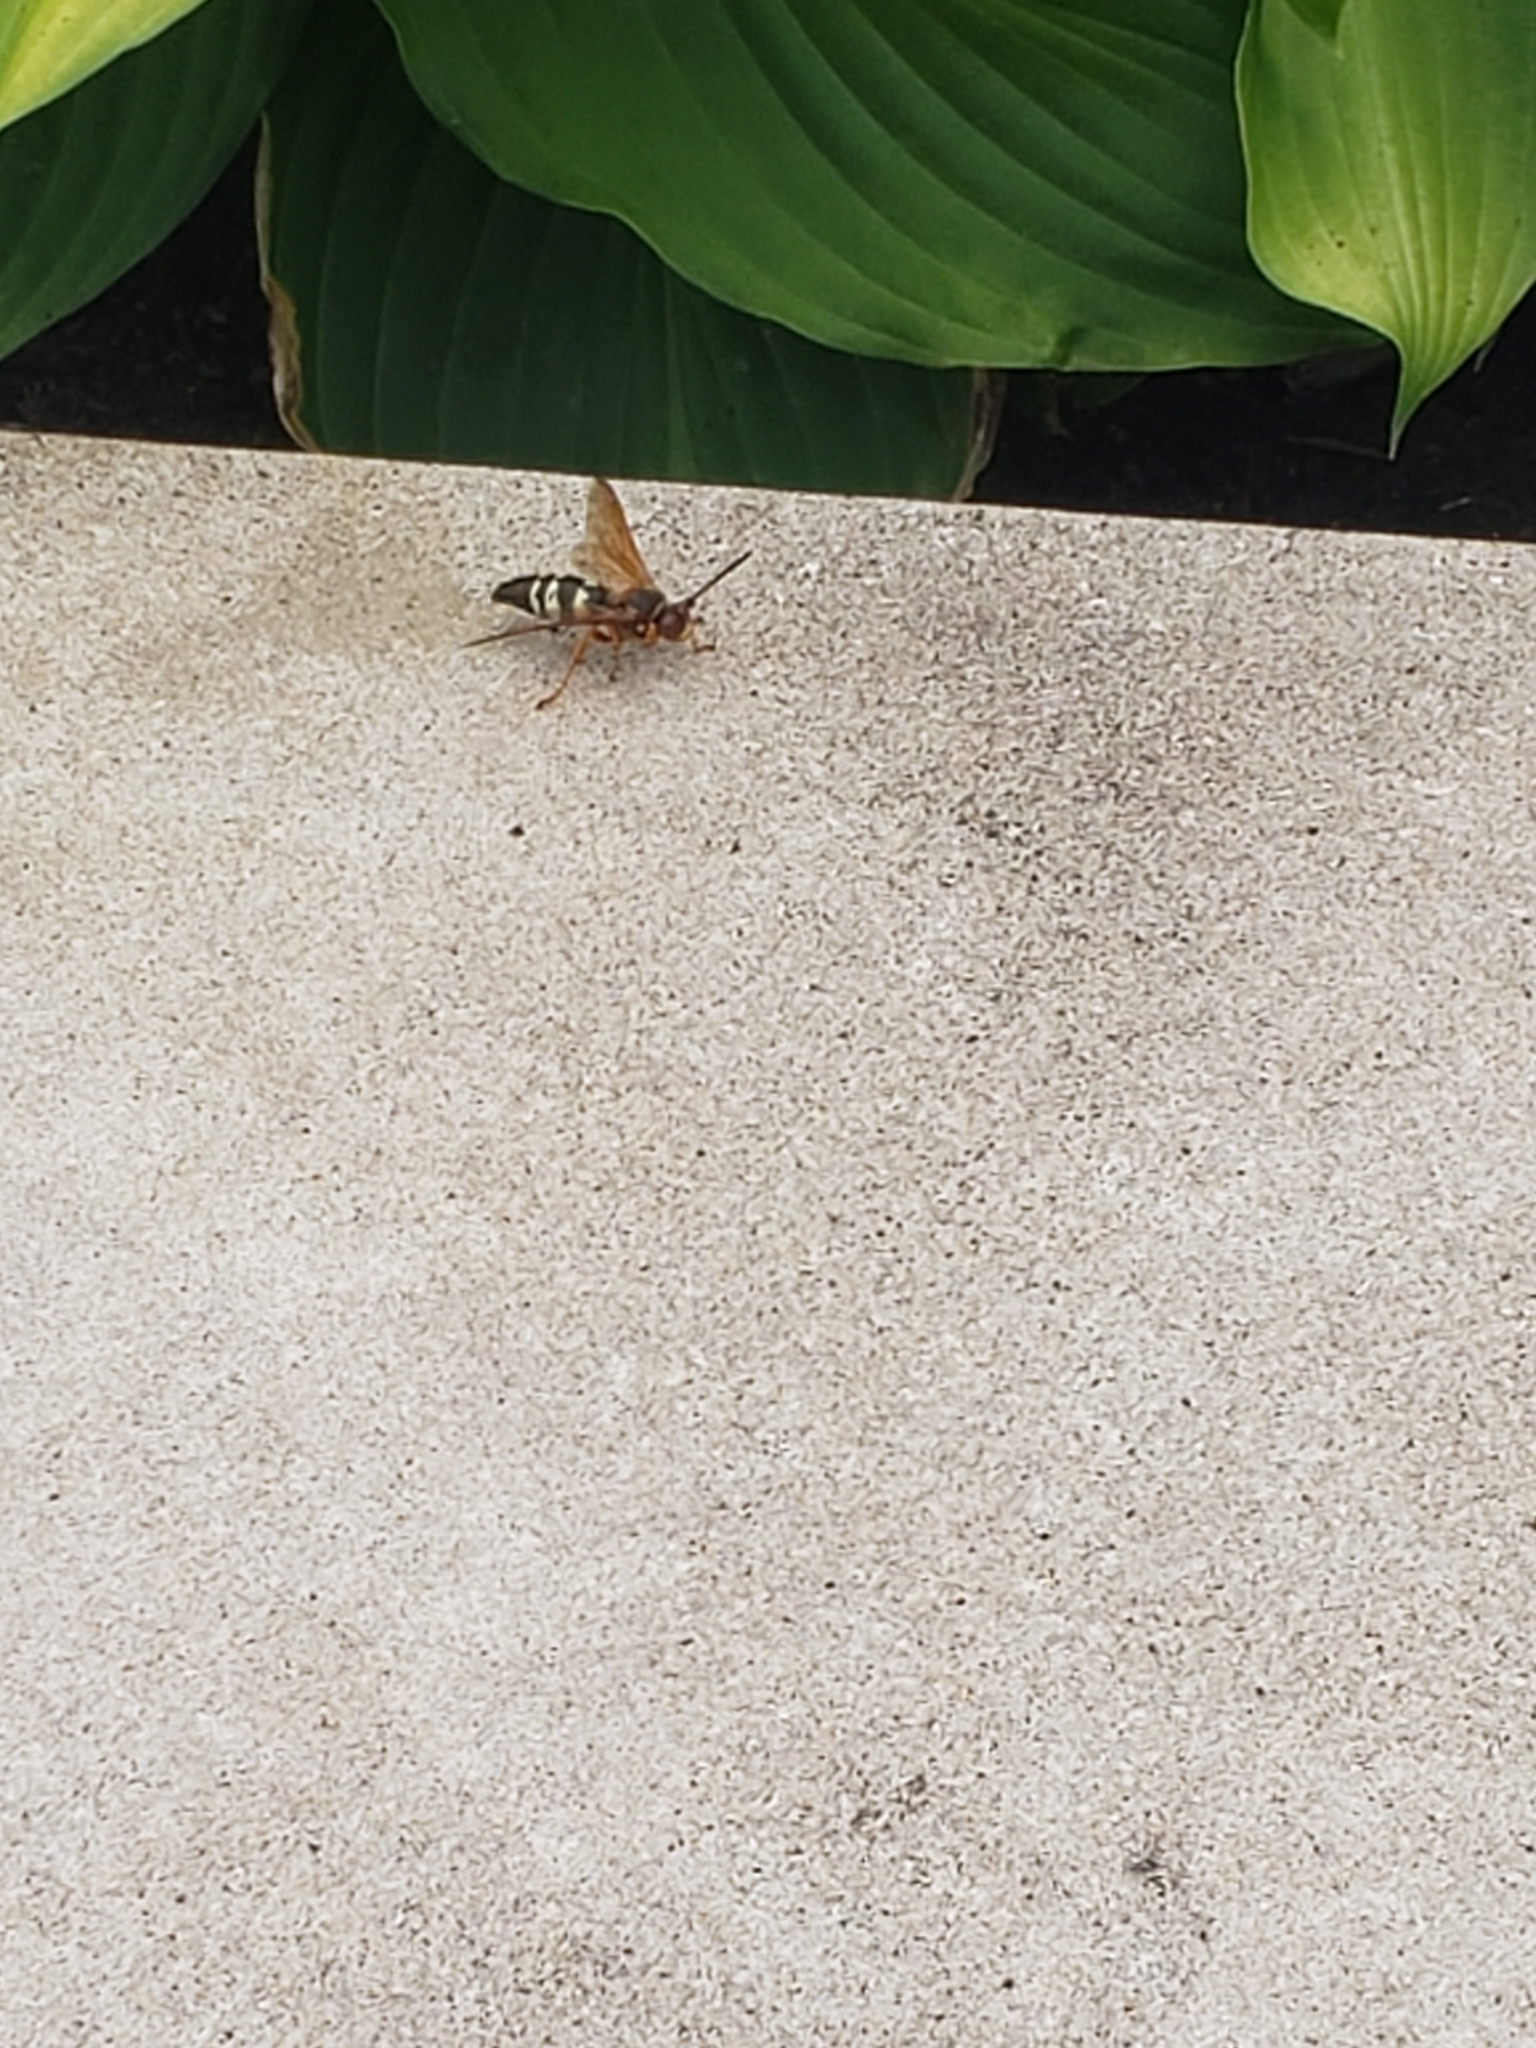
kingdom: Animalia
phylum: Arthropoda
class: Insecta
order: Hymenoptera
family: Crabronidae
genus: Sphecius
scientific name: Sphecius speciosus
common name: Cicada killer
